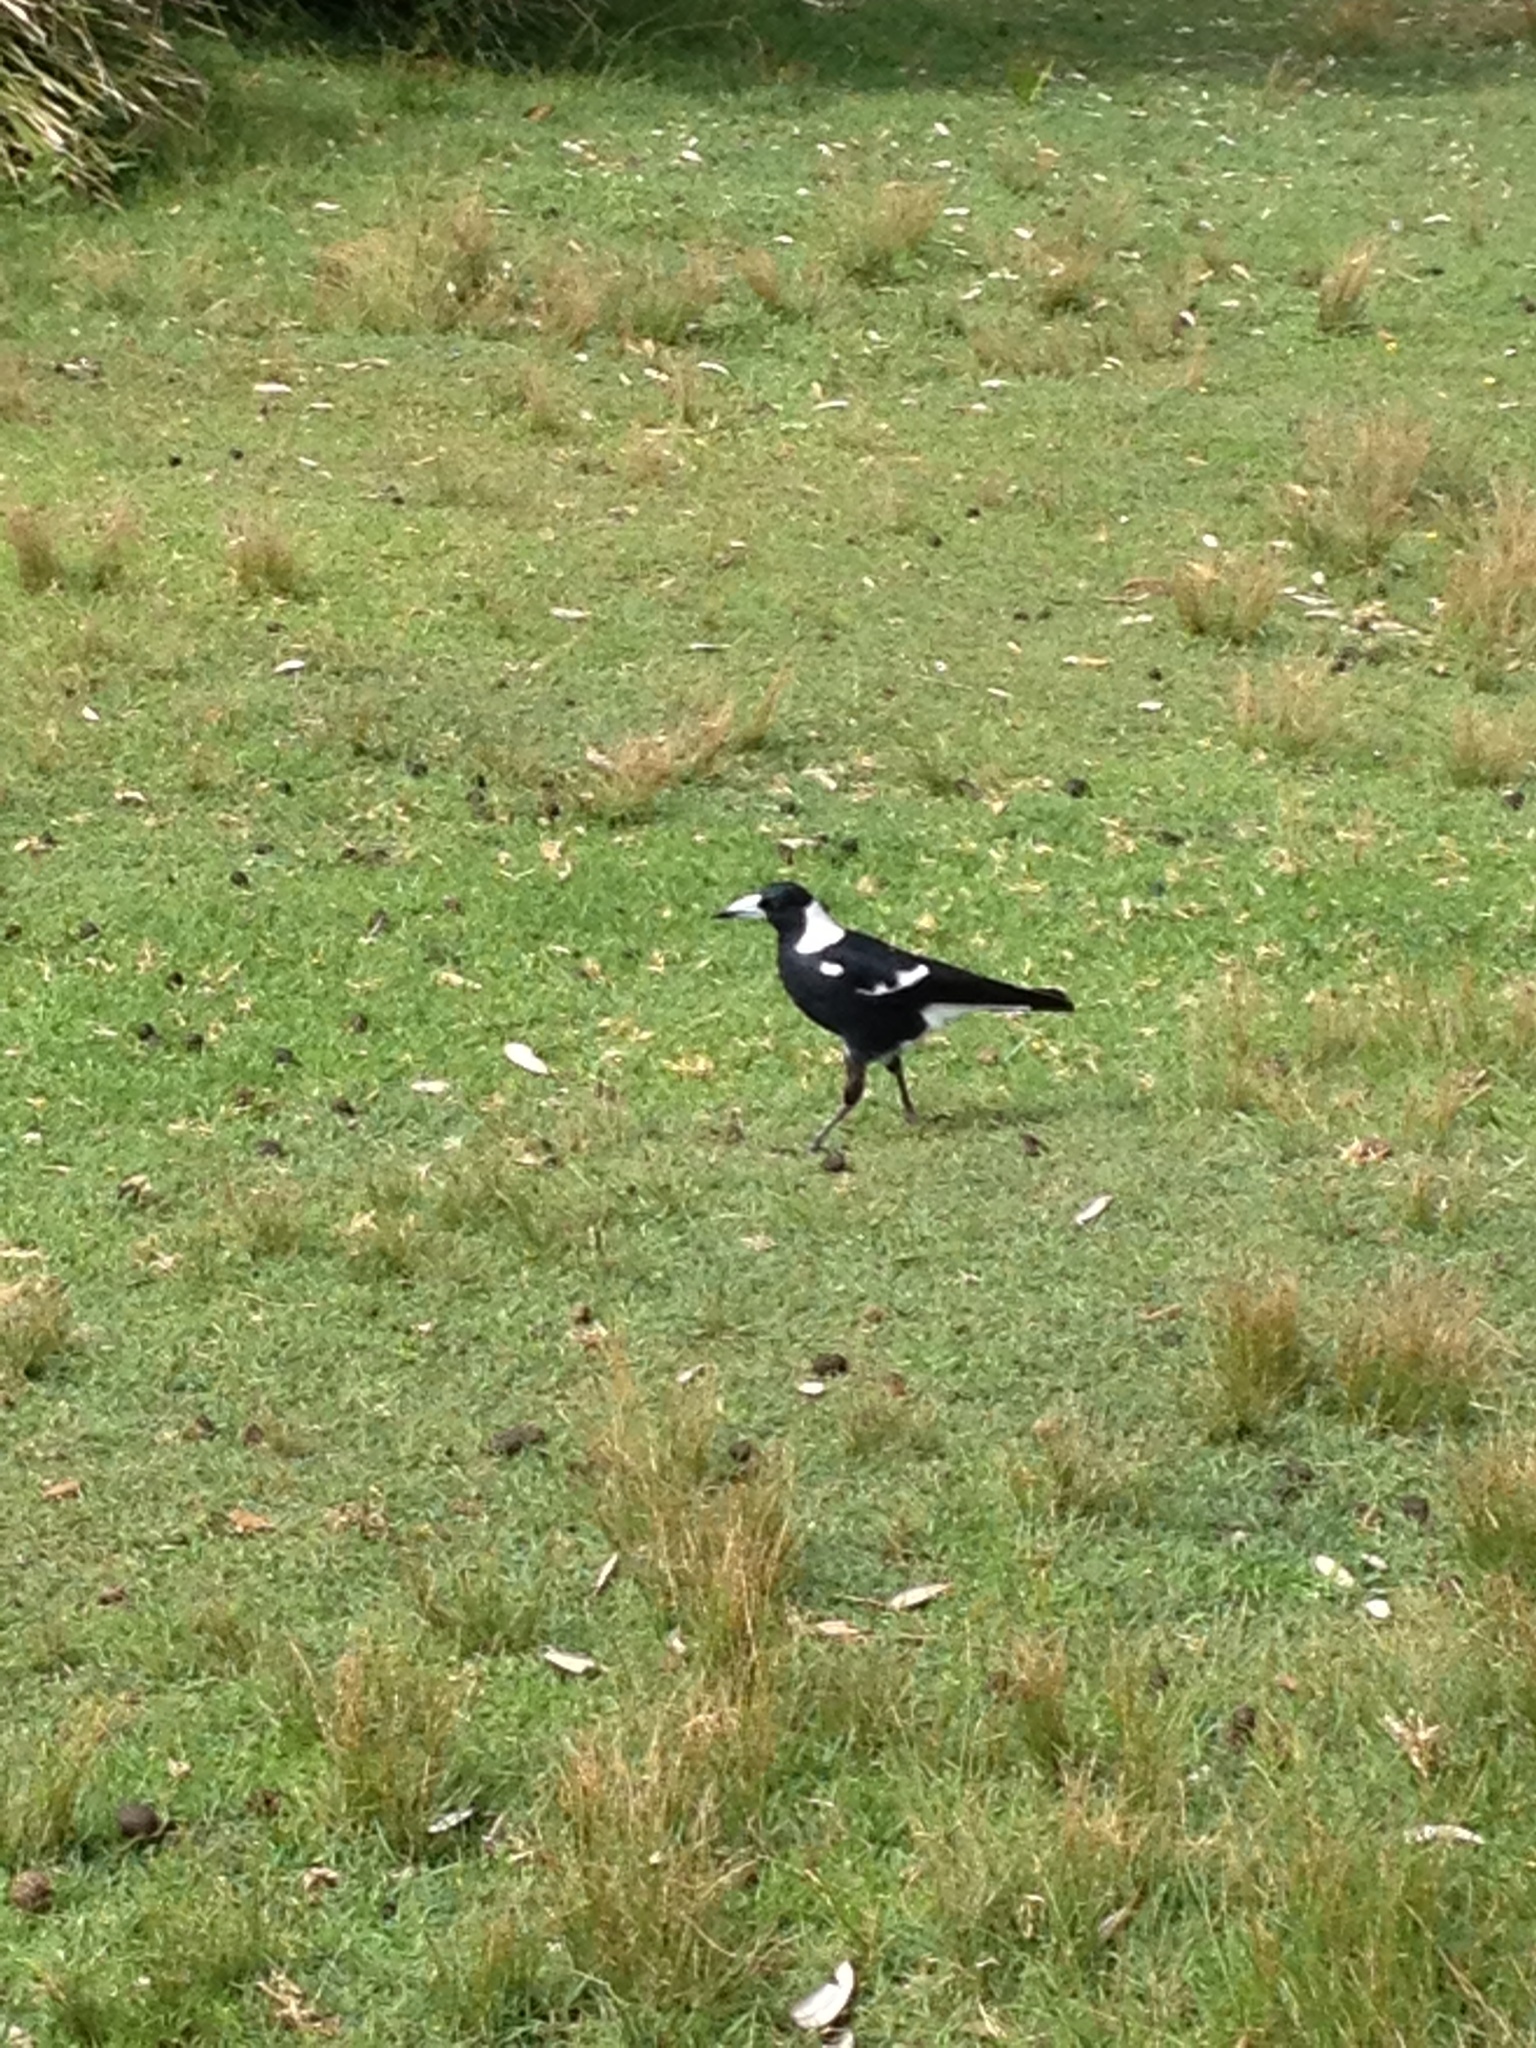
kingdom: Animalia
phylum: Chordata
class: Aves
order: Passeriformes
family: Cracticidae
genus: Gymnorhina
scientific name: Gymnorhina tibicen
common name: Australian magpie
